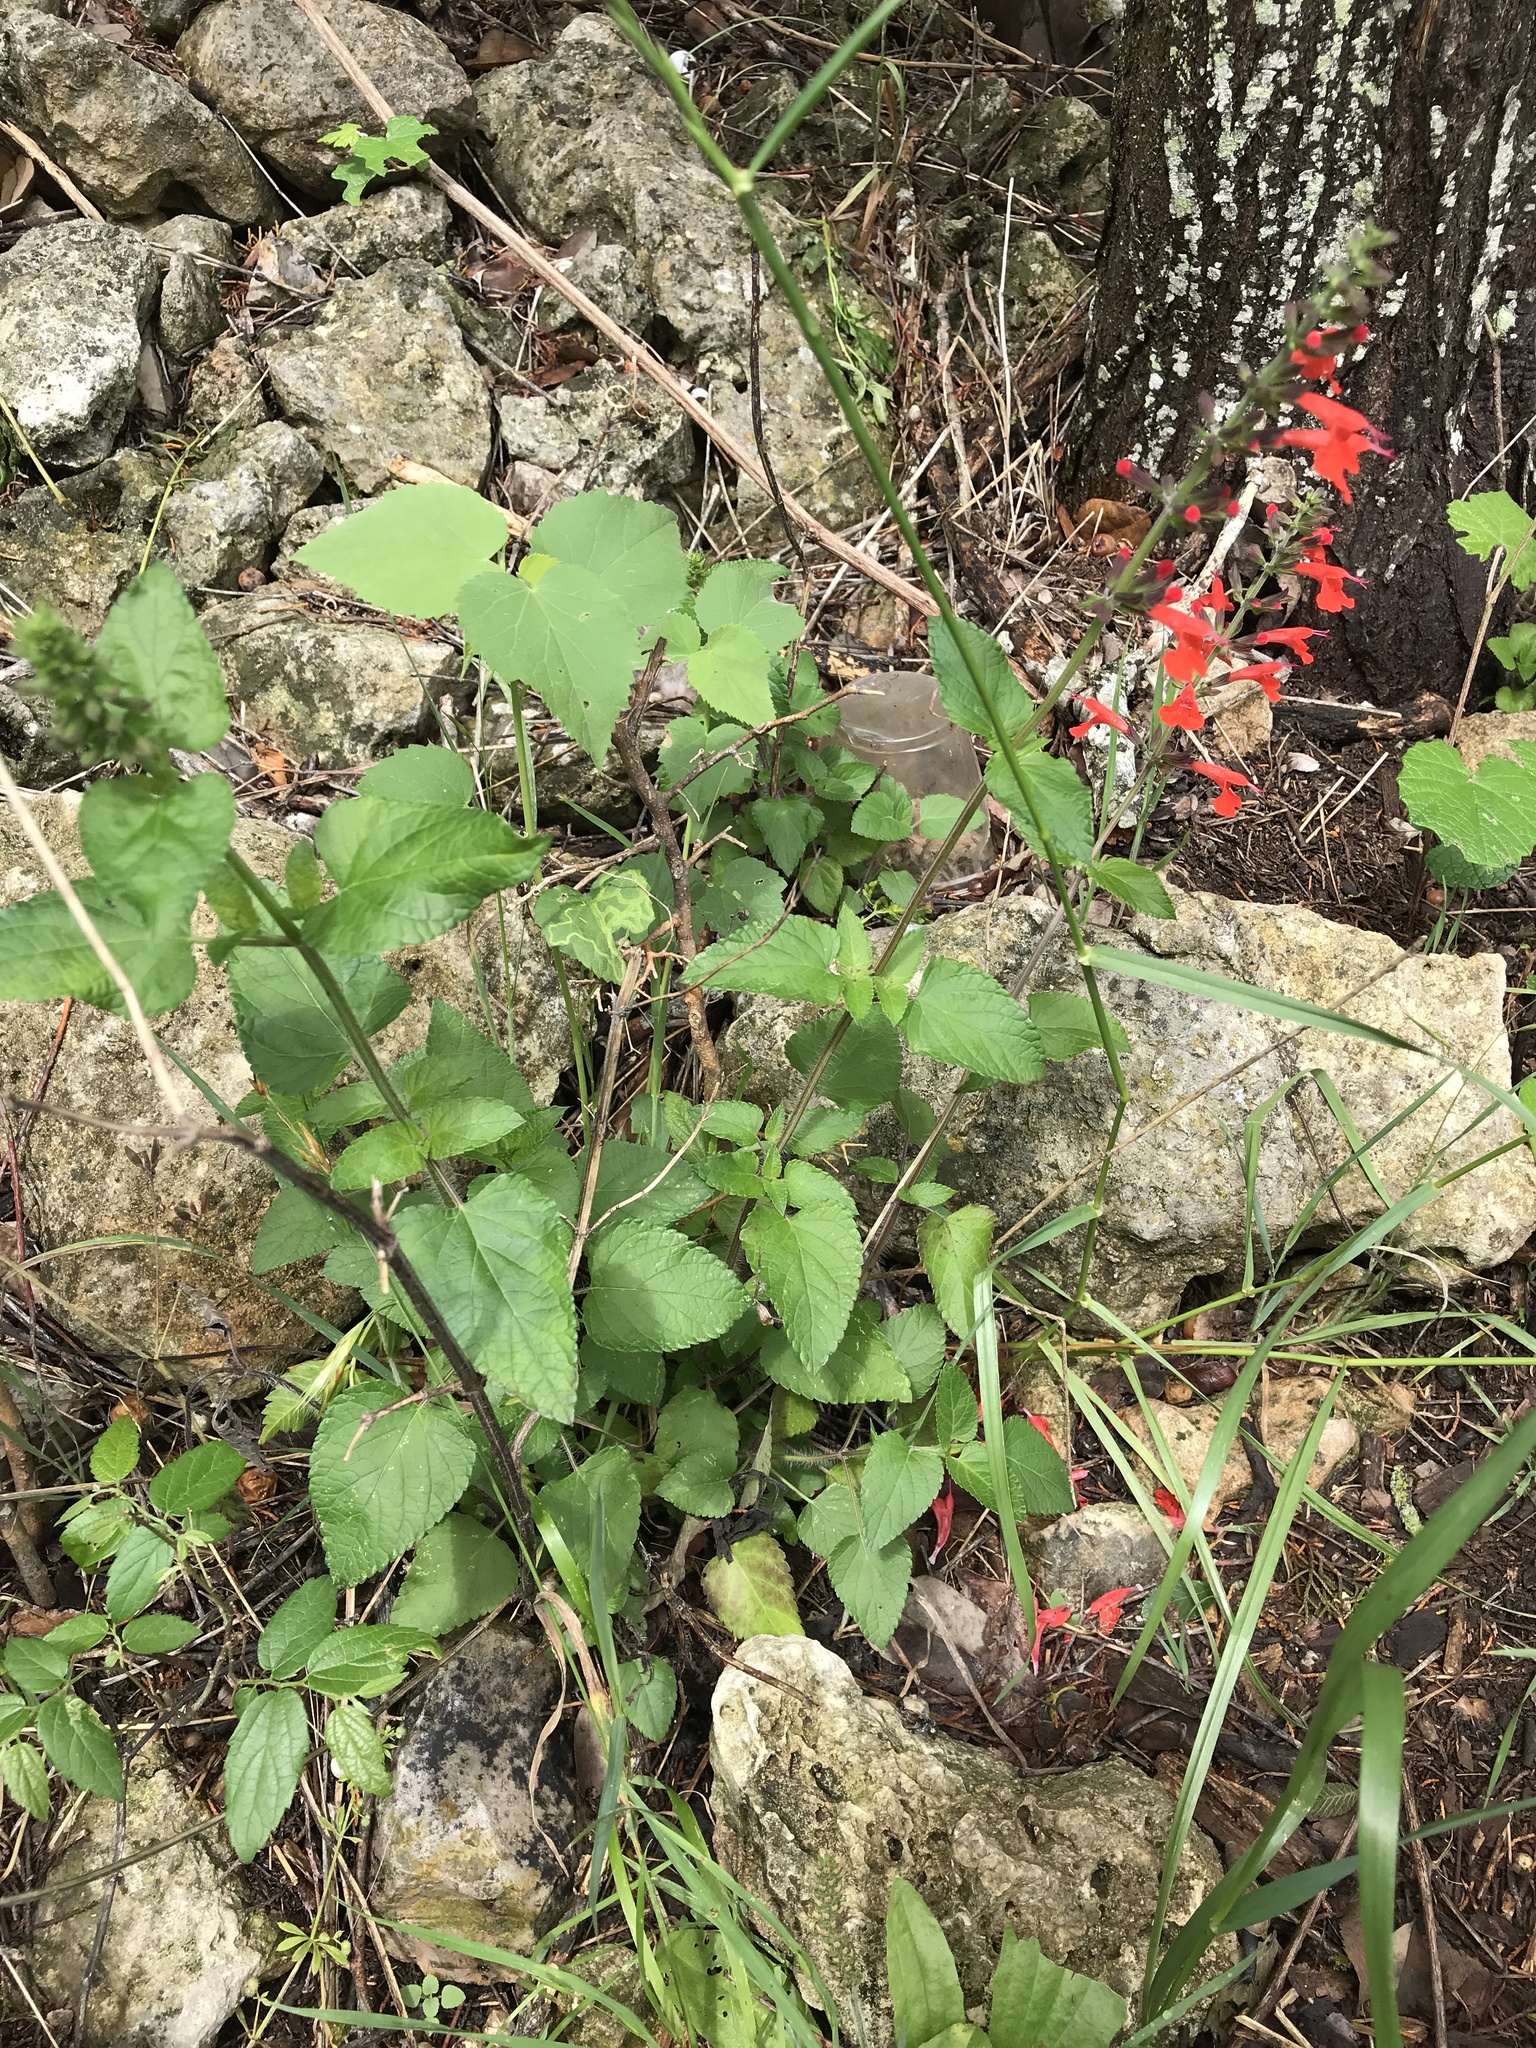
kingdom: Plantae
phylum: Tracheophyta
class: Magnoliopsida
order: Lamiales
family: Lamiaceae
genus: Salvia
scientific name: Salvia coccinea
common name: Blood sage
